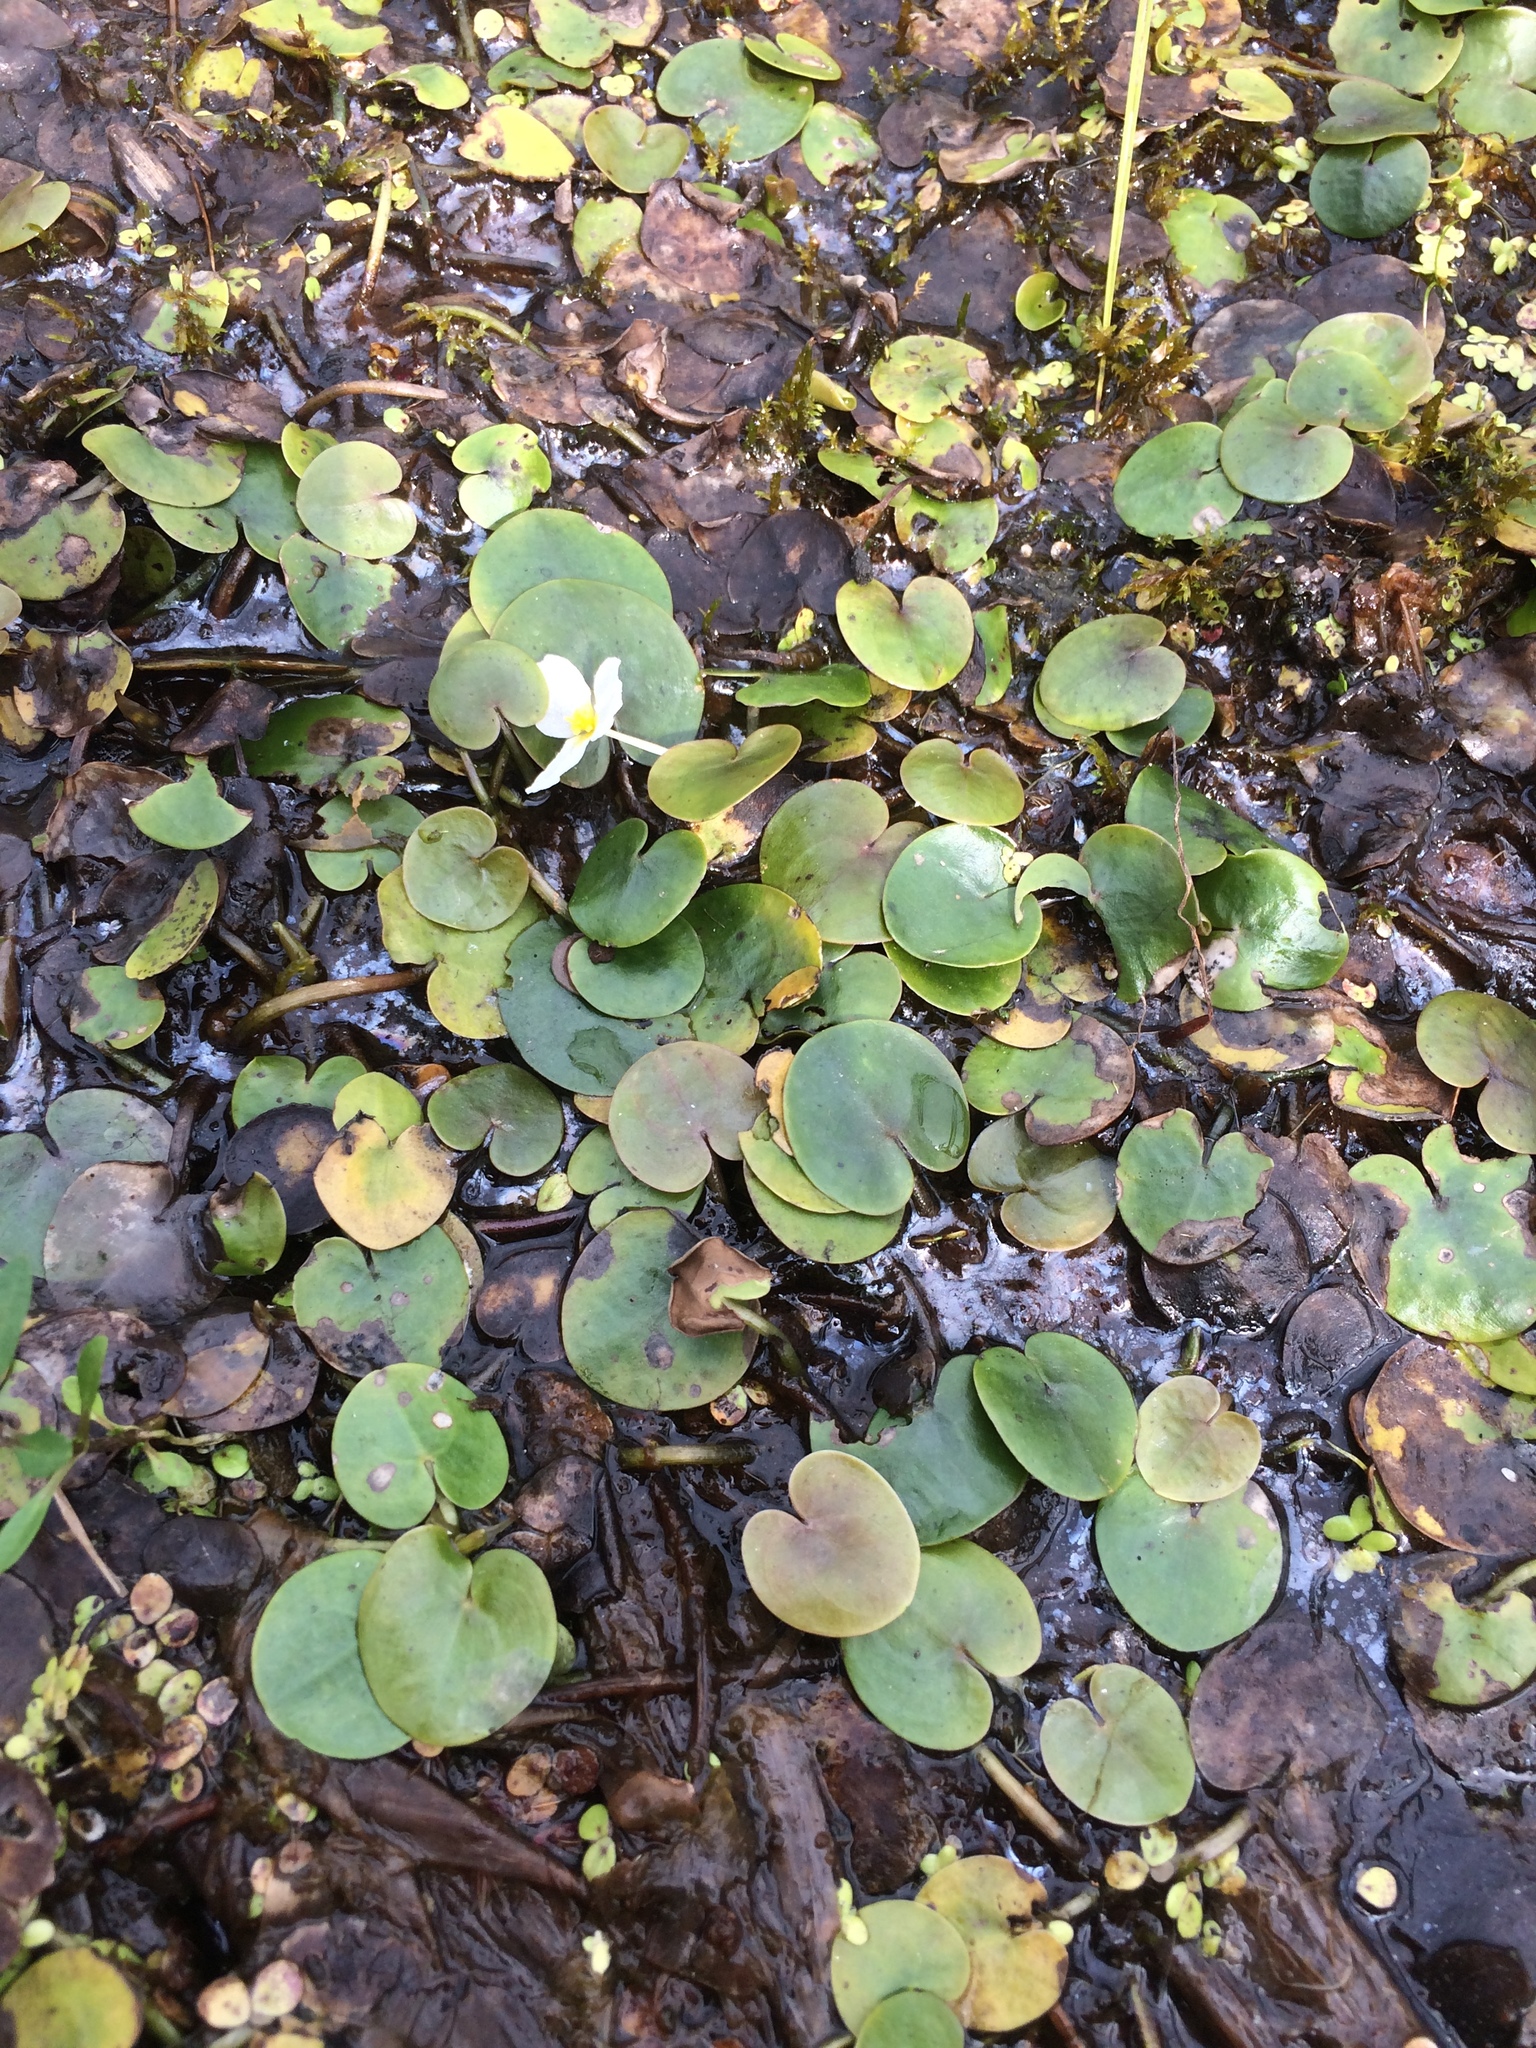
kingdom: Plantae
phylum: Tracheophyta
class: Liliopsida
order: Alismatales
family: Hydrocharitaceae
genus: Hydrocharis
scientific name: Hydrocharis morsus-ranae
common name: Frogbit
